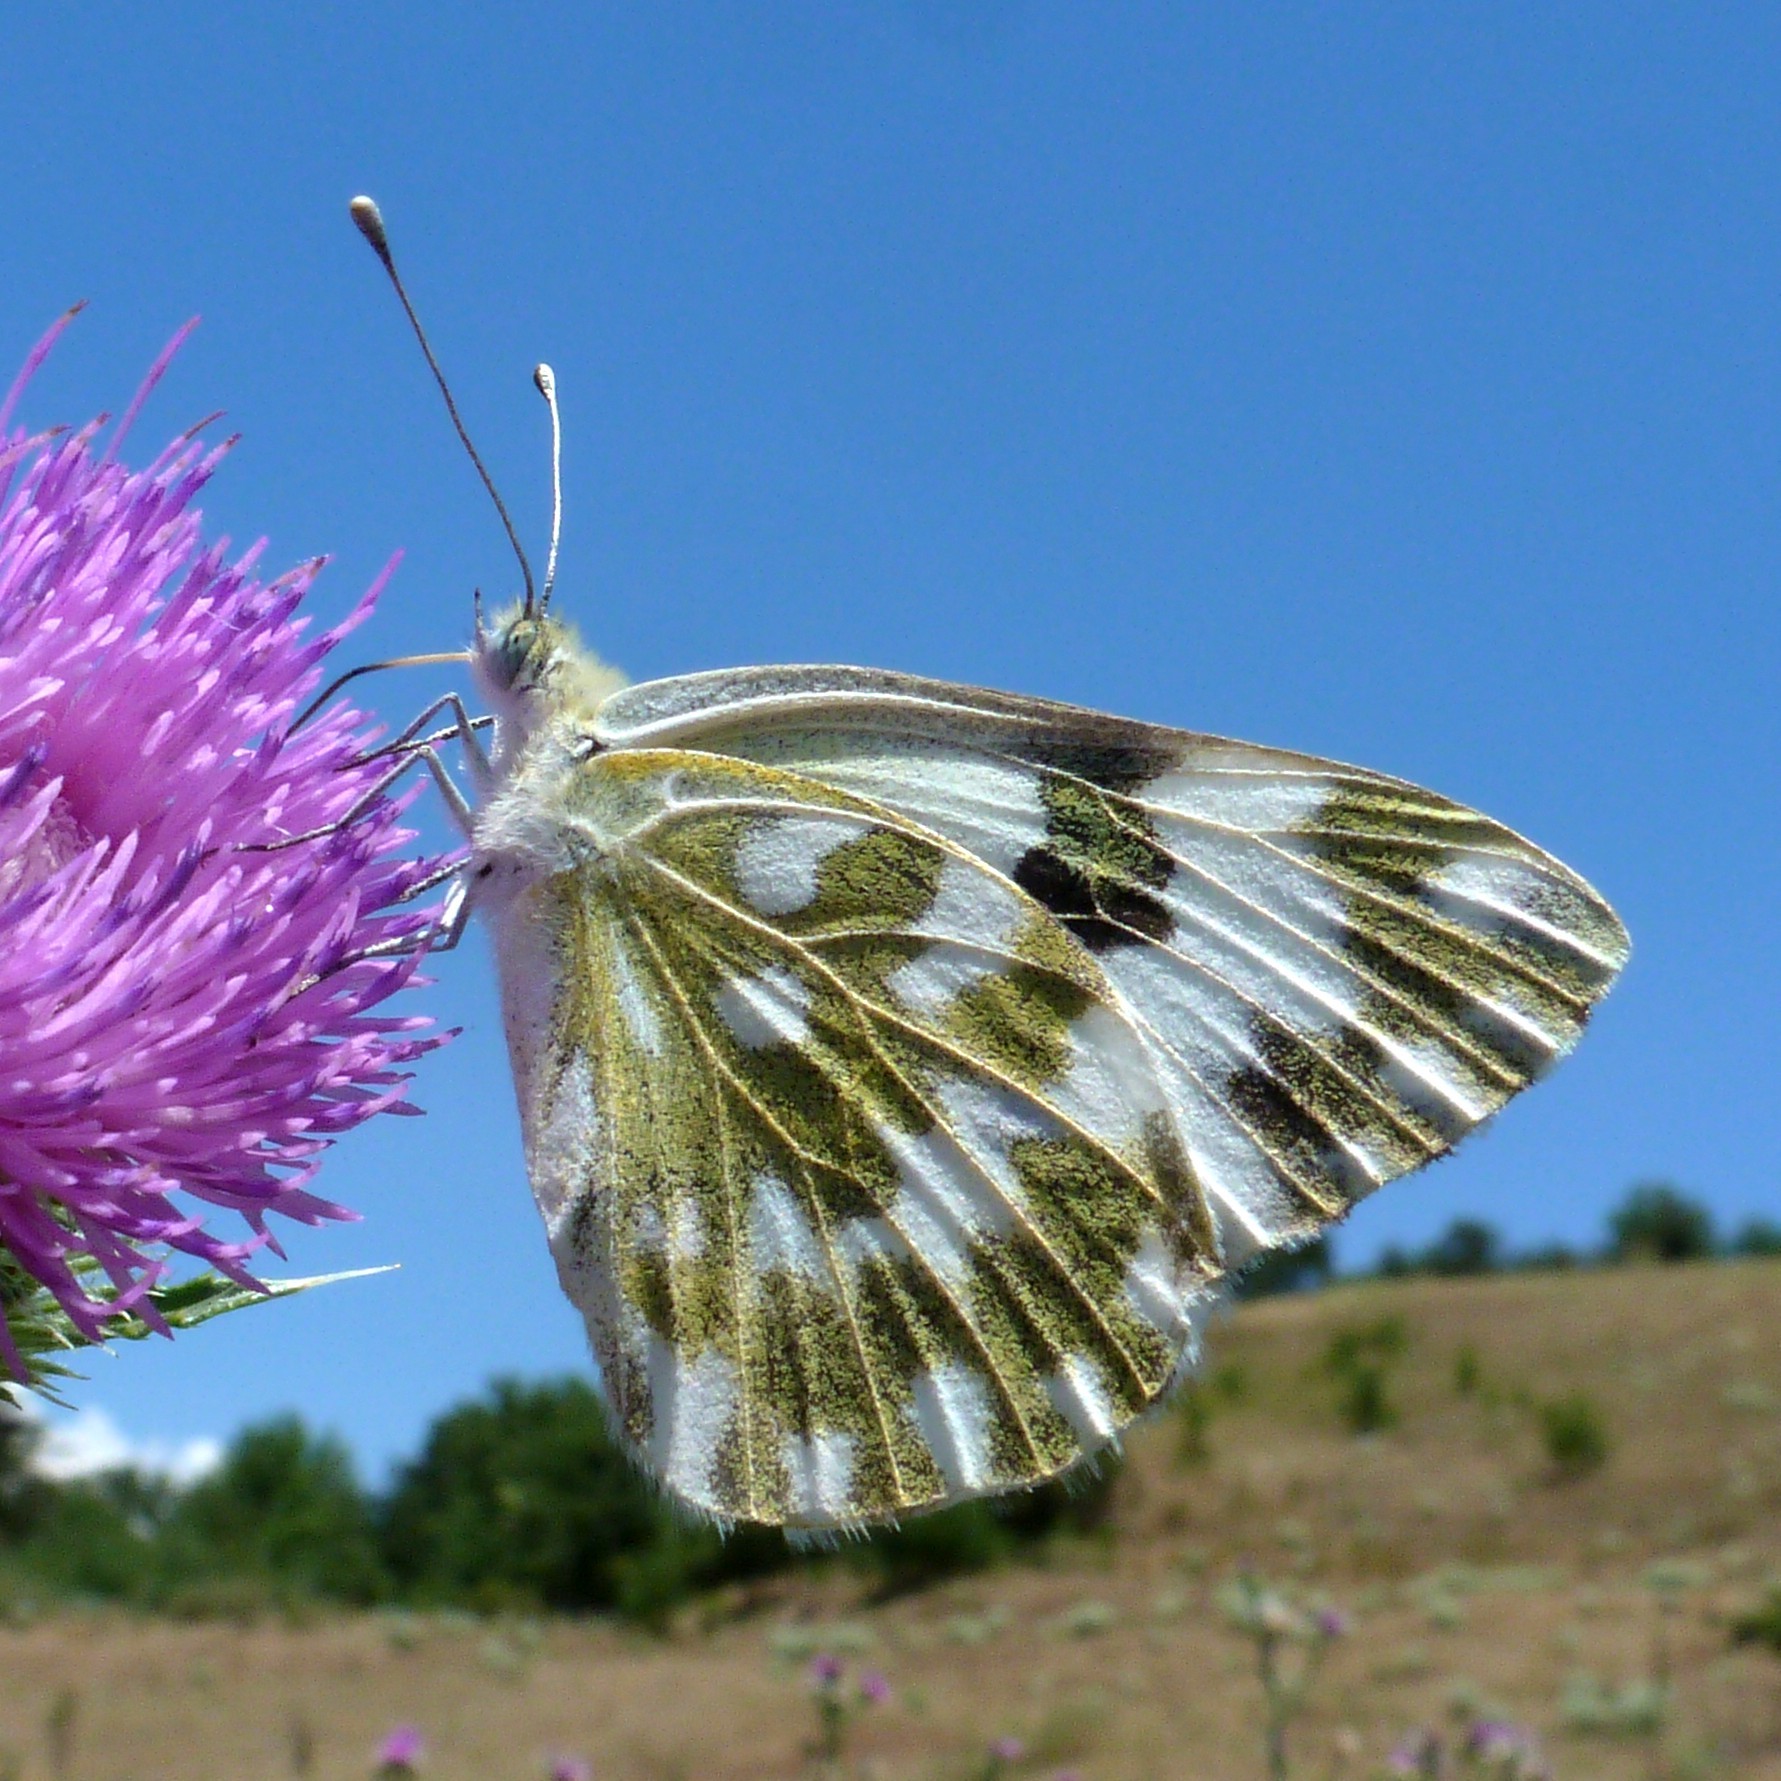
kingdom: Animalia
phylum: Arthropoda
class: Insecta
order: Lepidoptera
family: Pieridae
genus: Pontia
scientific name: Pontia edusa
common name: Eastern bath white
